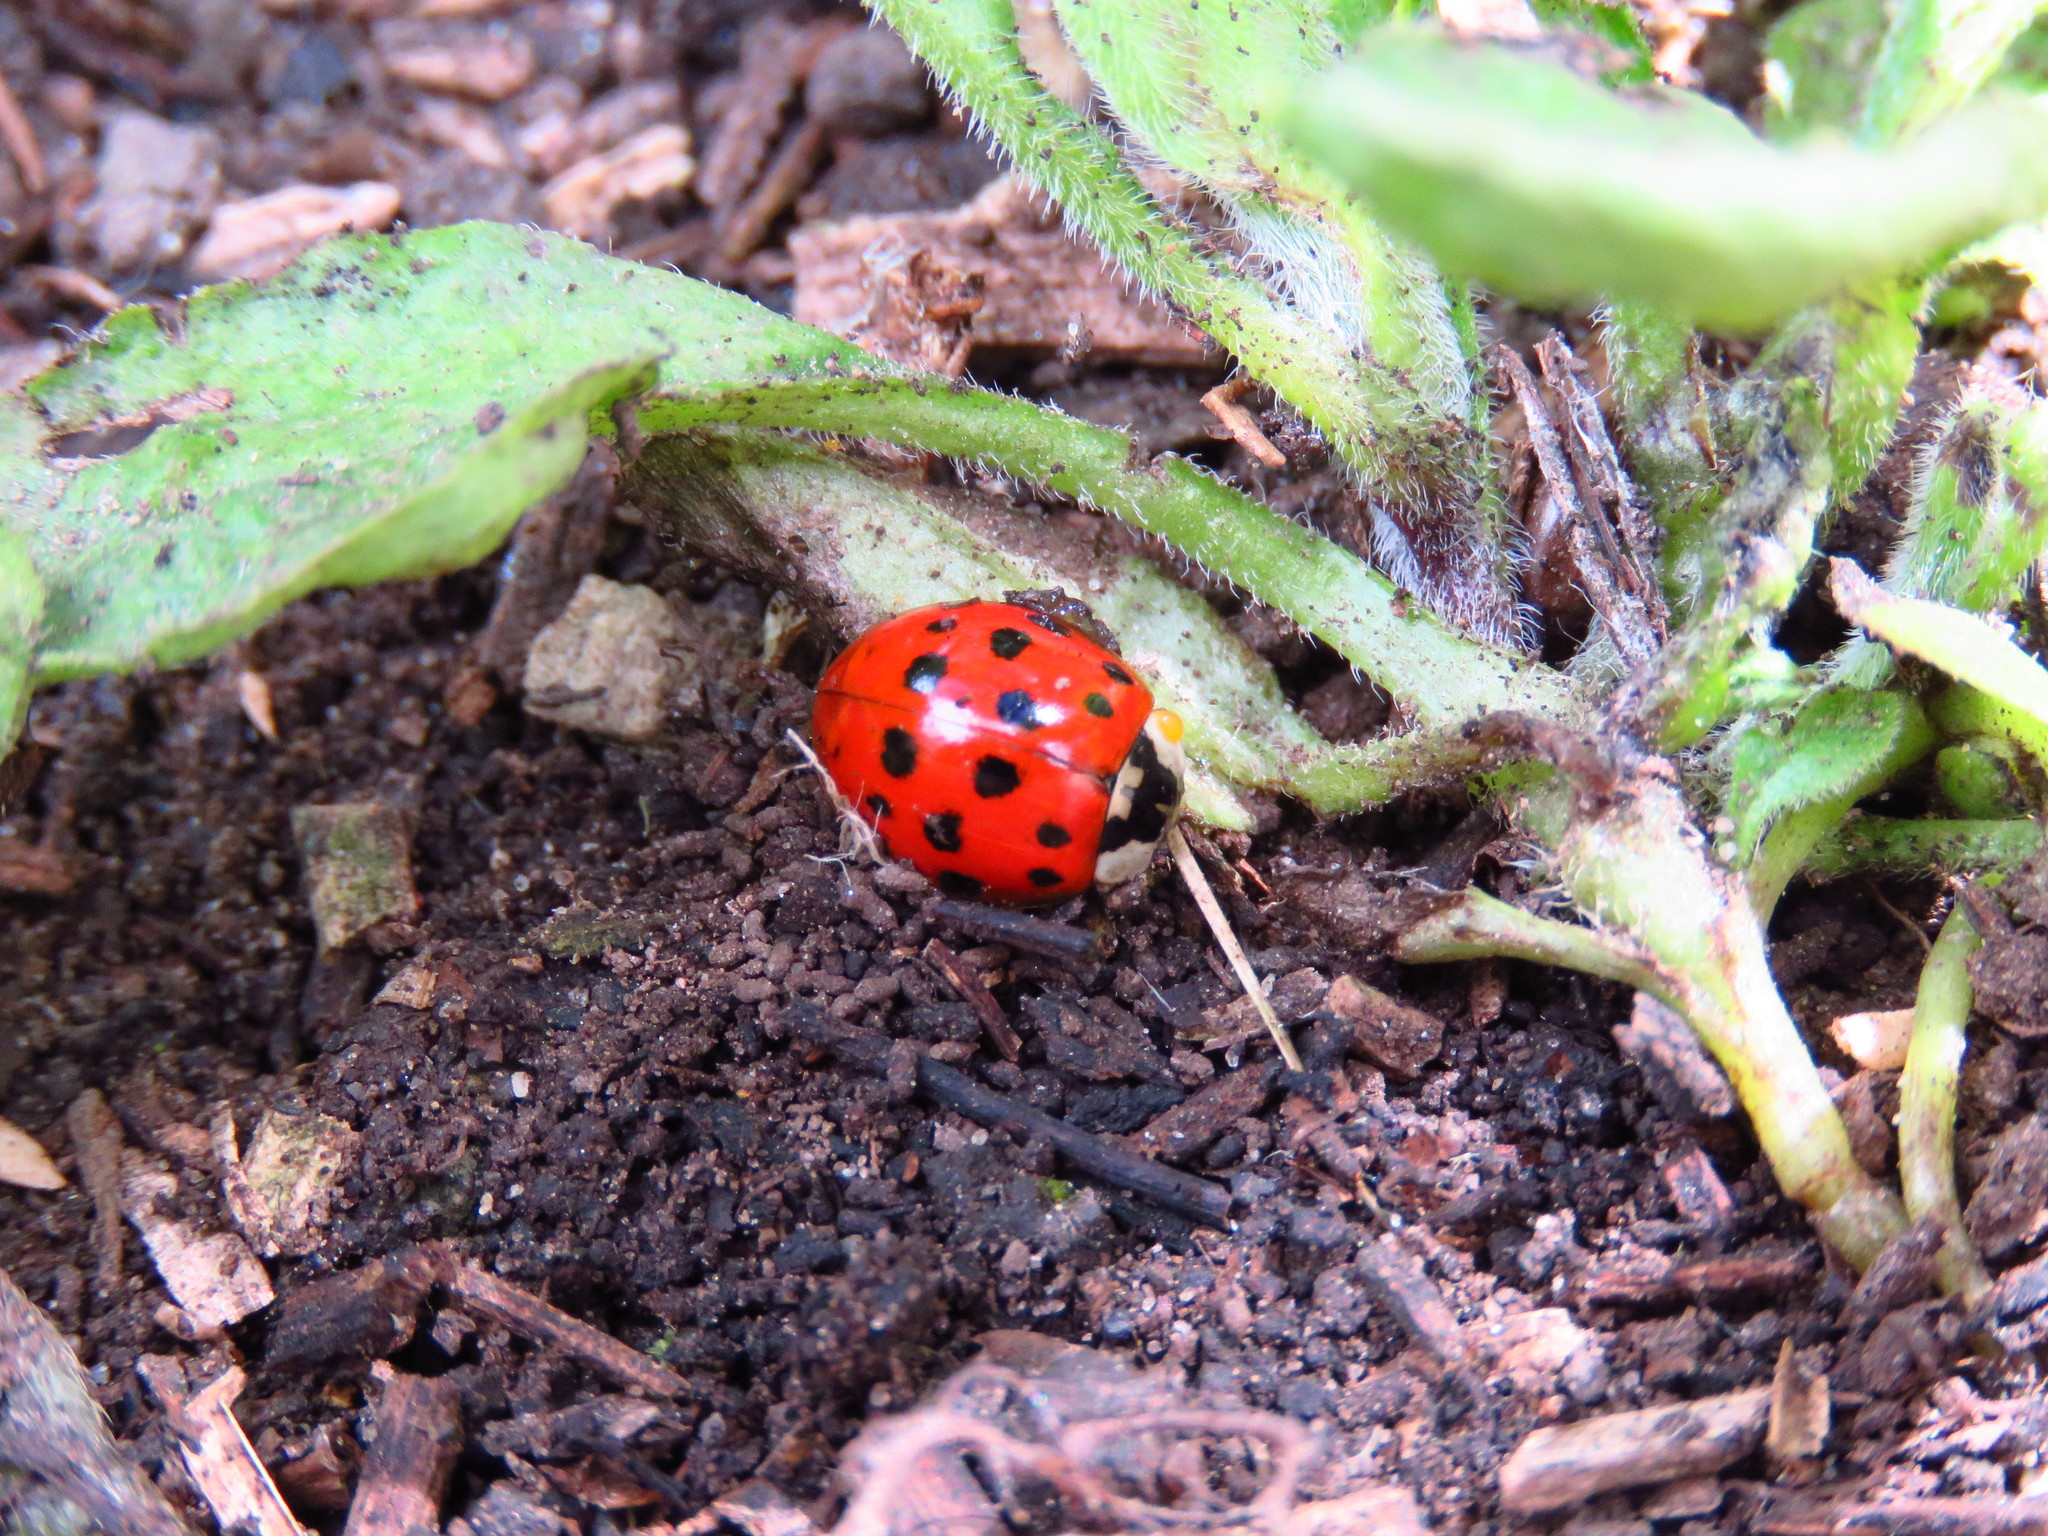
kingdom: Animalia
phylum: Arthropoda
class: Insecta
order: Coleoptera
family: Coccinellidae
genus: Harmonia
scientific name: Harmonia axyridis
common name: Harlequin ladybird
